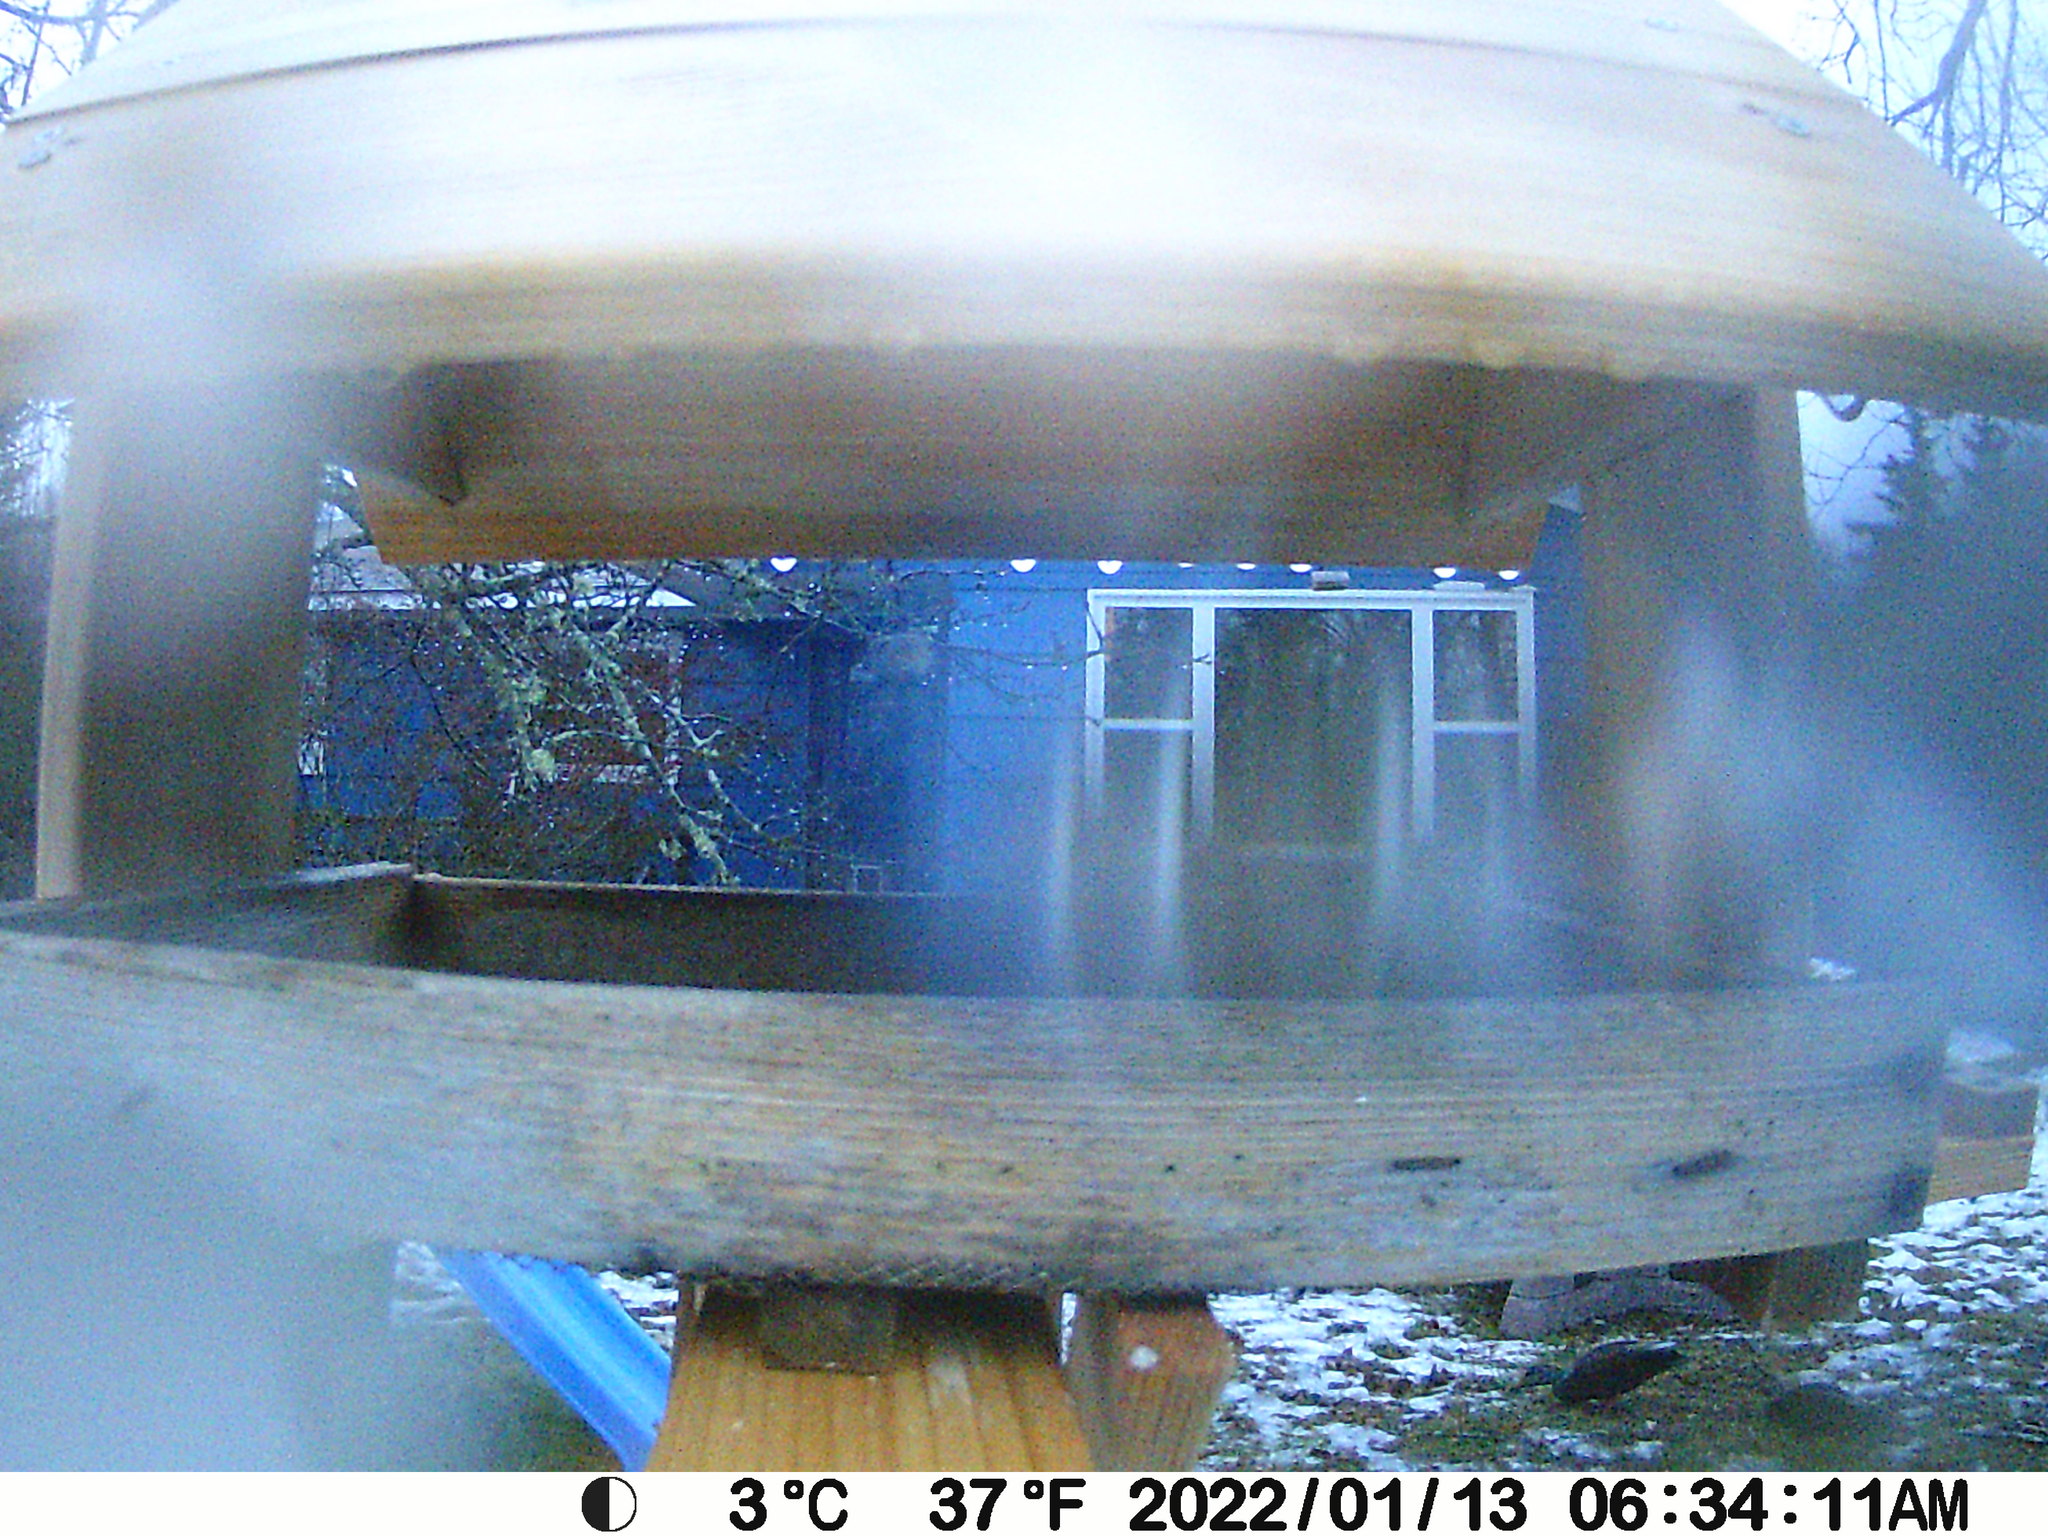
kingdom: Animalia
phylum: Chordata
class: Aves
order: Anseriformes
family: Anatidae
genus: Anas
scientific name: Anas rubripes
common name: American black duck
